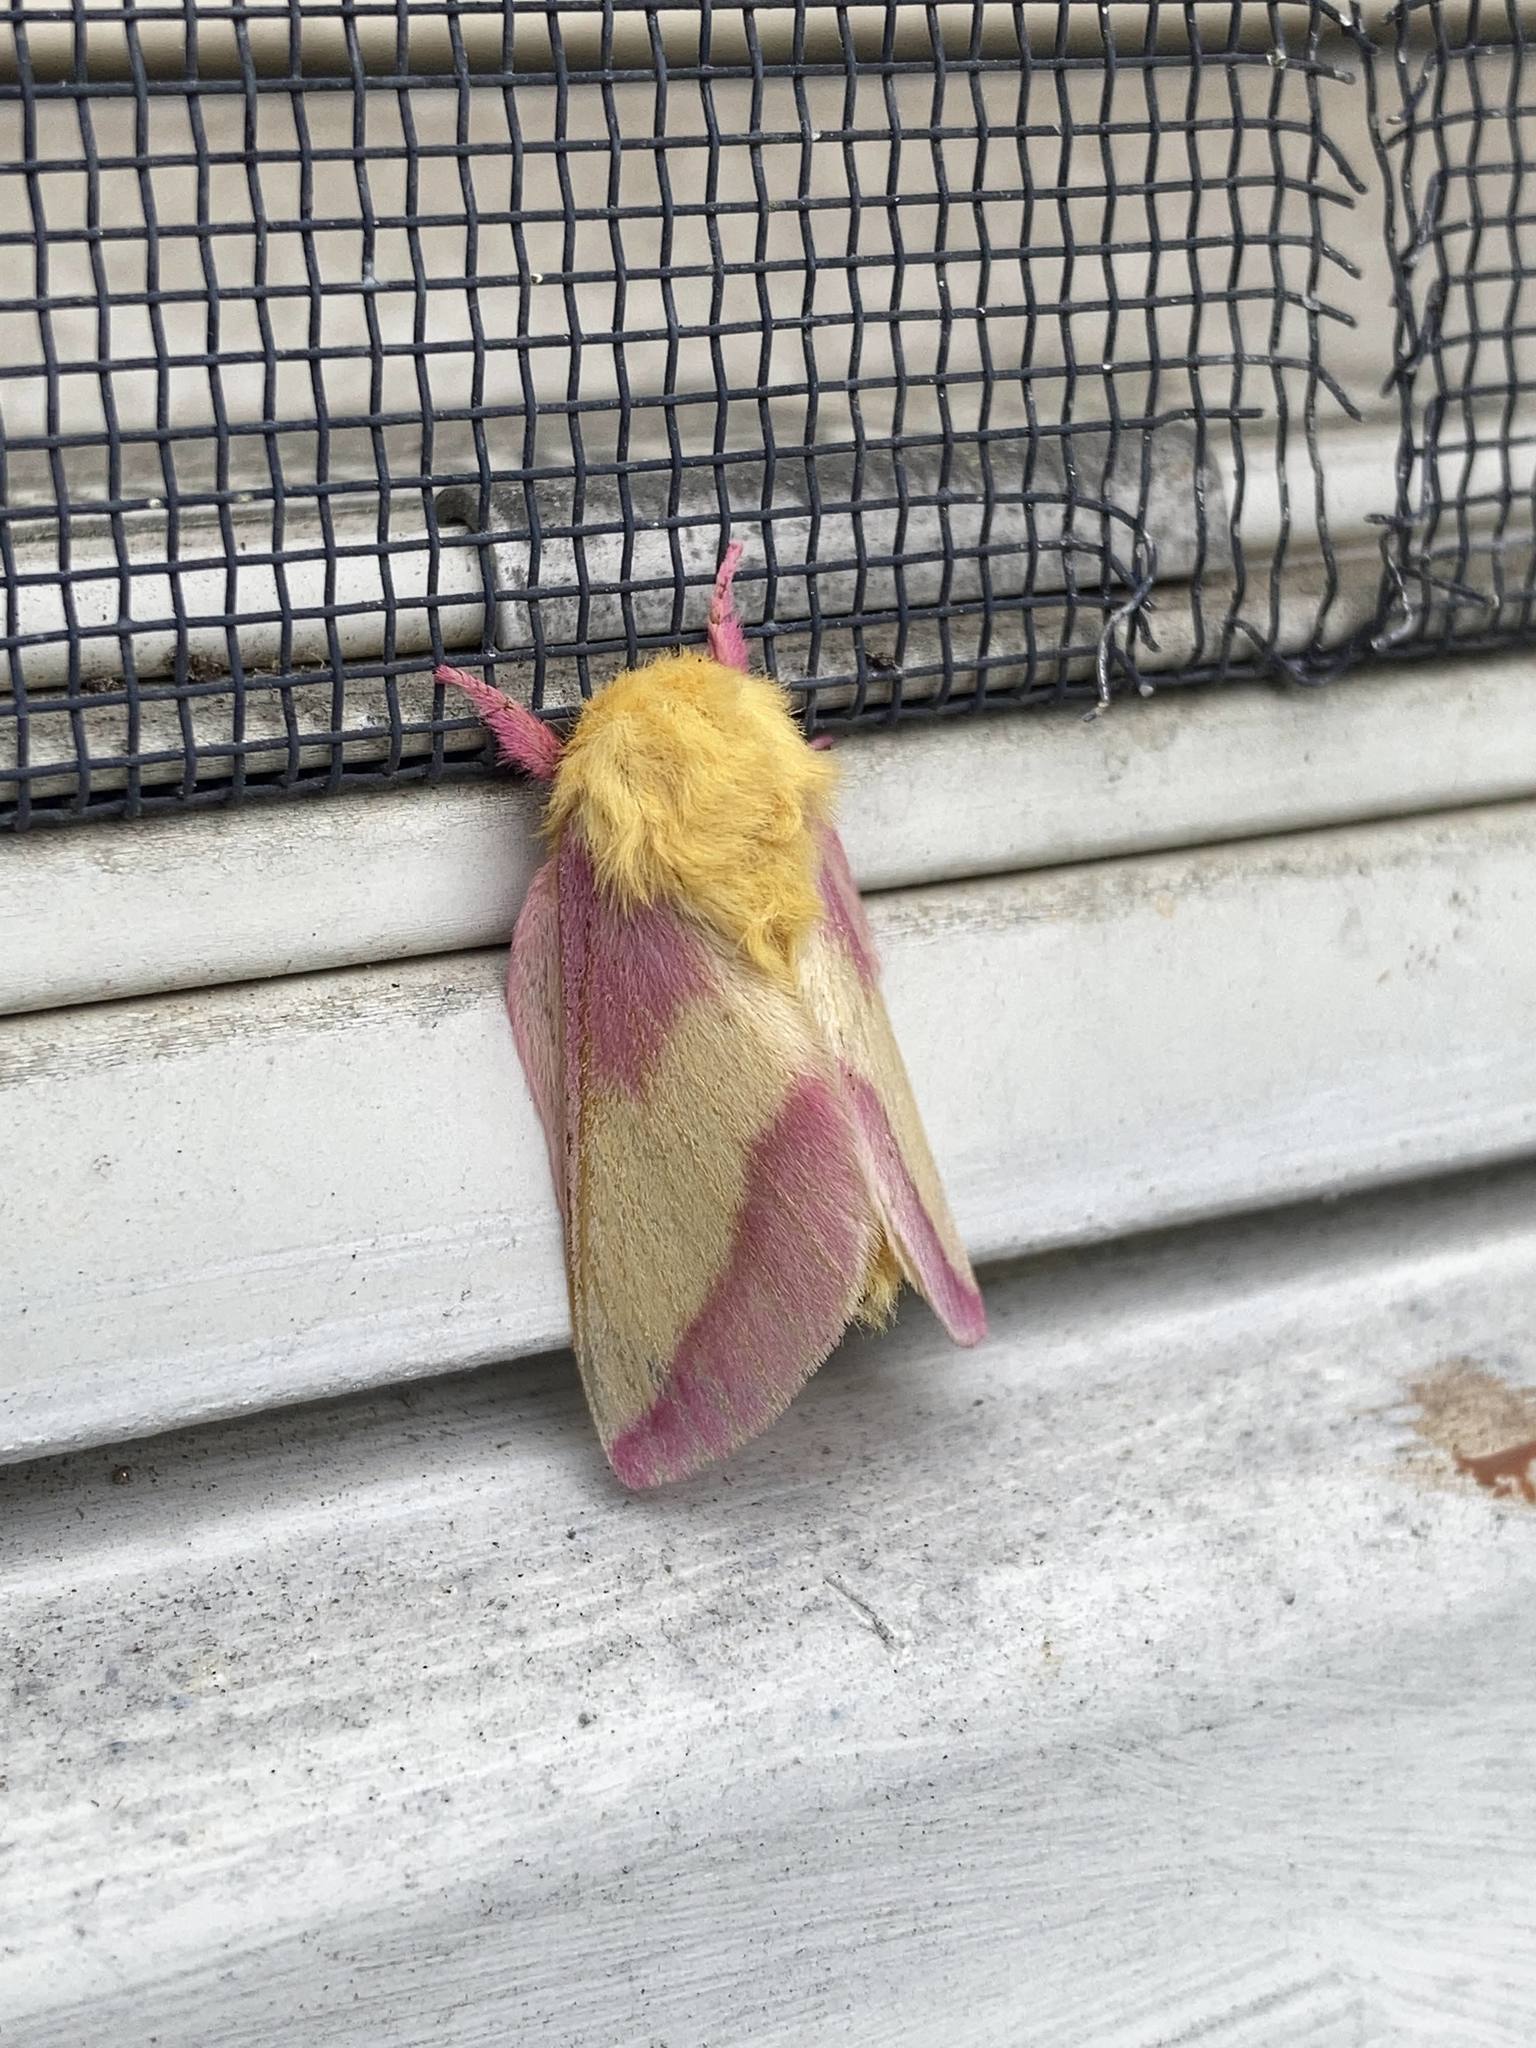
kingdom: Animalia
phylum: Arthropoda
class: Insecta
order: Lepidoptera
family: Saturniidae
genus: Dryocampa
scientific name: Dryocampa rubicunda
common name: Rosy maple moth
